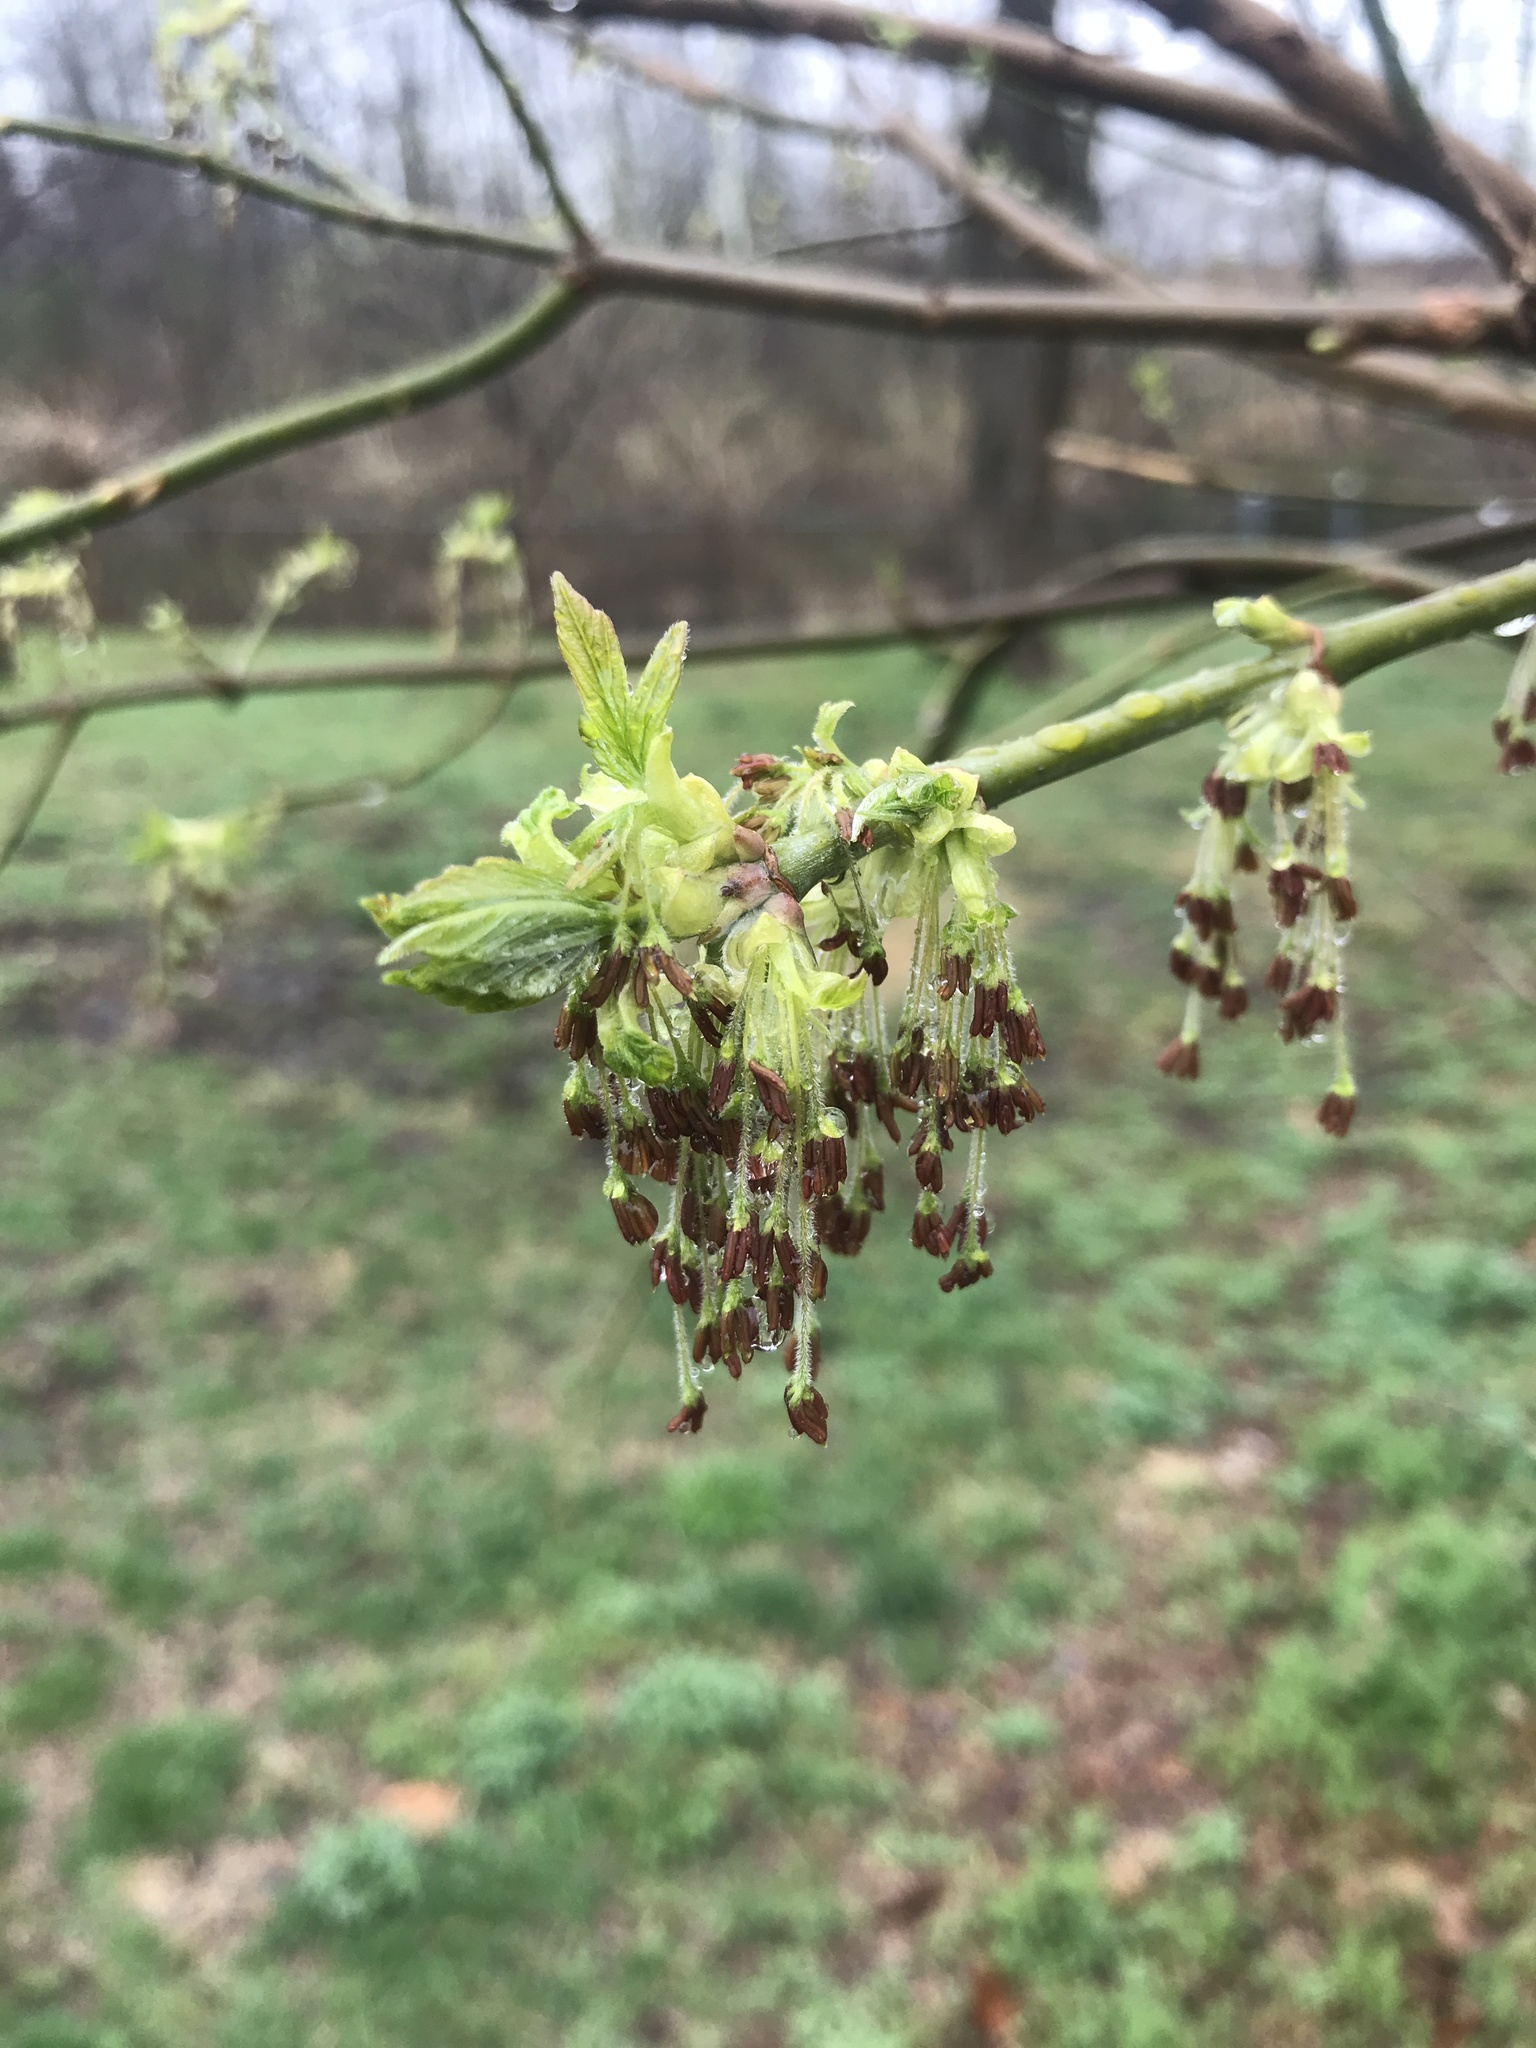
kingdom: Plantae
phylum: Tracheophyta
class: Magnoliopsida
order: Sapindales
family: Sapindaceae
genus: Acer
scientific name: Acer negundo
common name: Ashleaf maple
